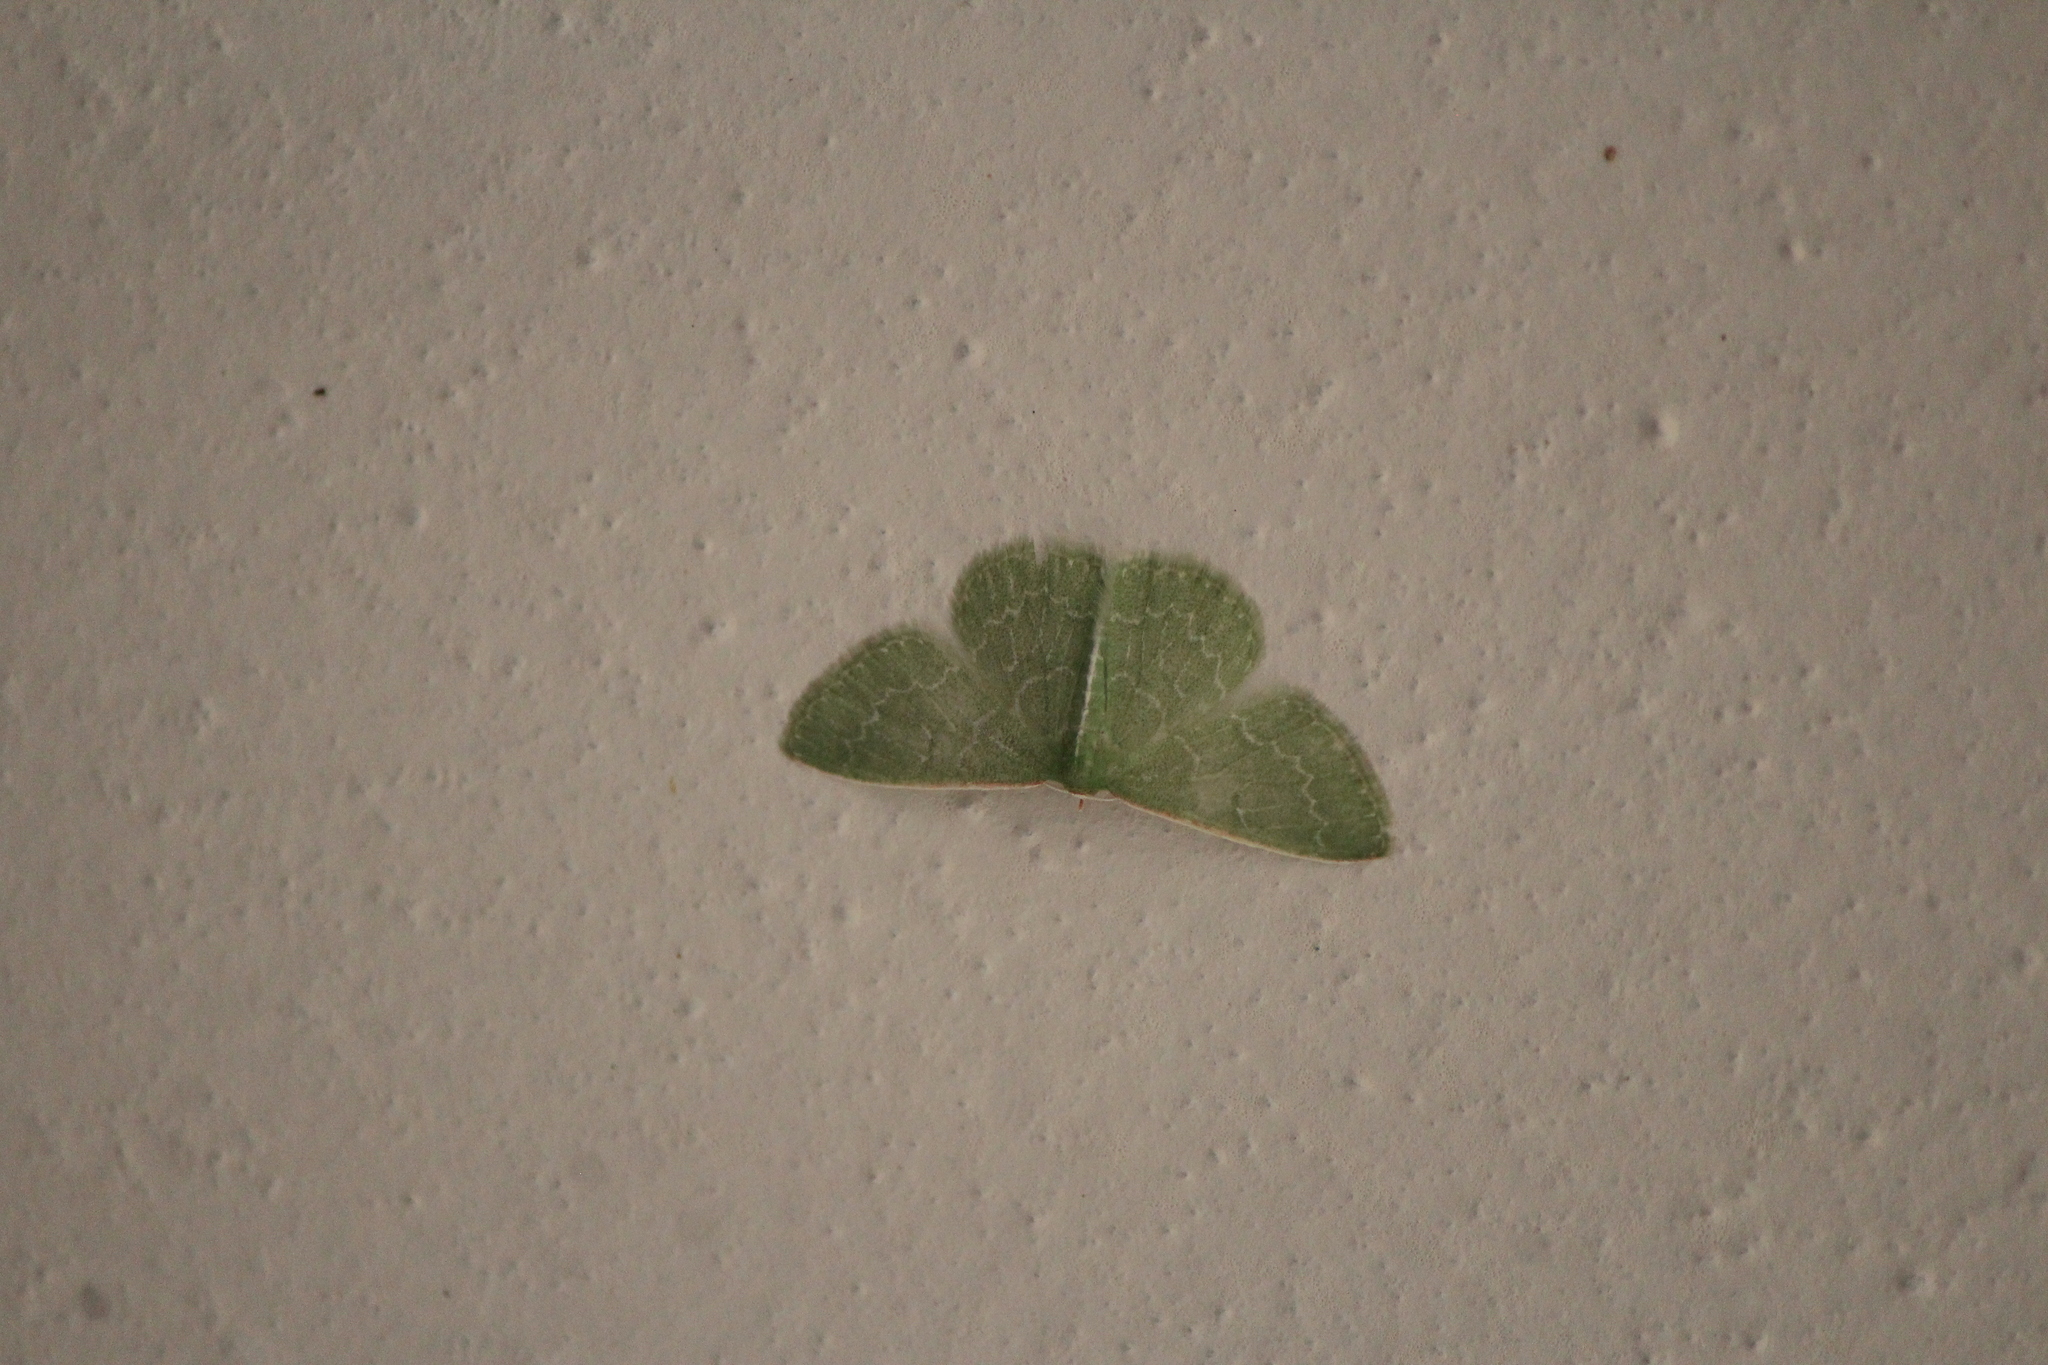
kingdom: Animalia
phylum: Arthropoda
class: Insecta
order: Lepidoptera
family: Geometridae
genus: Synchlora
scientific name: Synchlora frondaria
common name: Southern emerald
